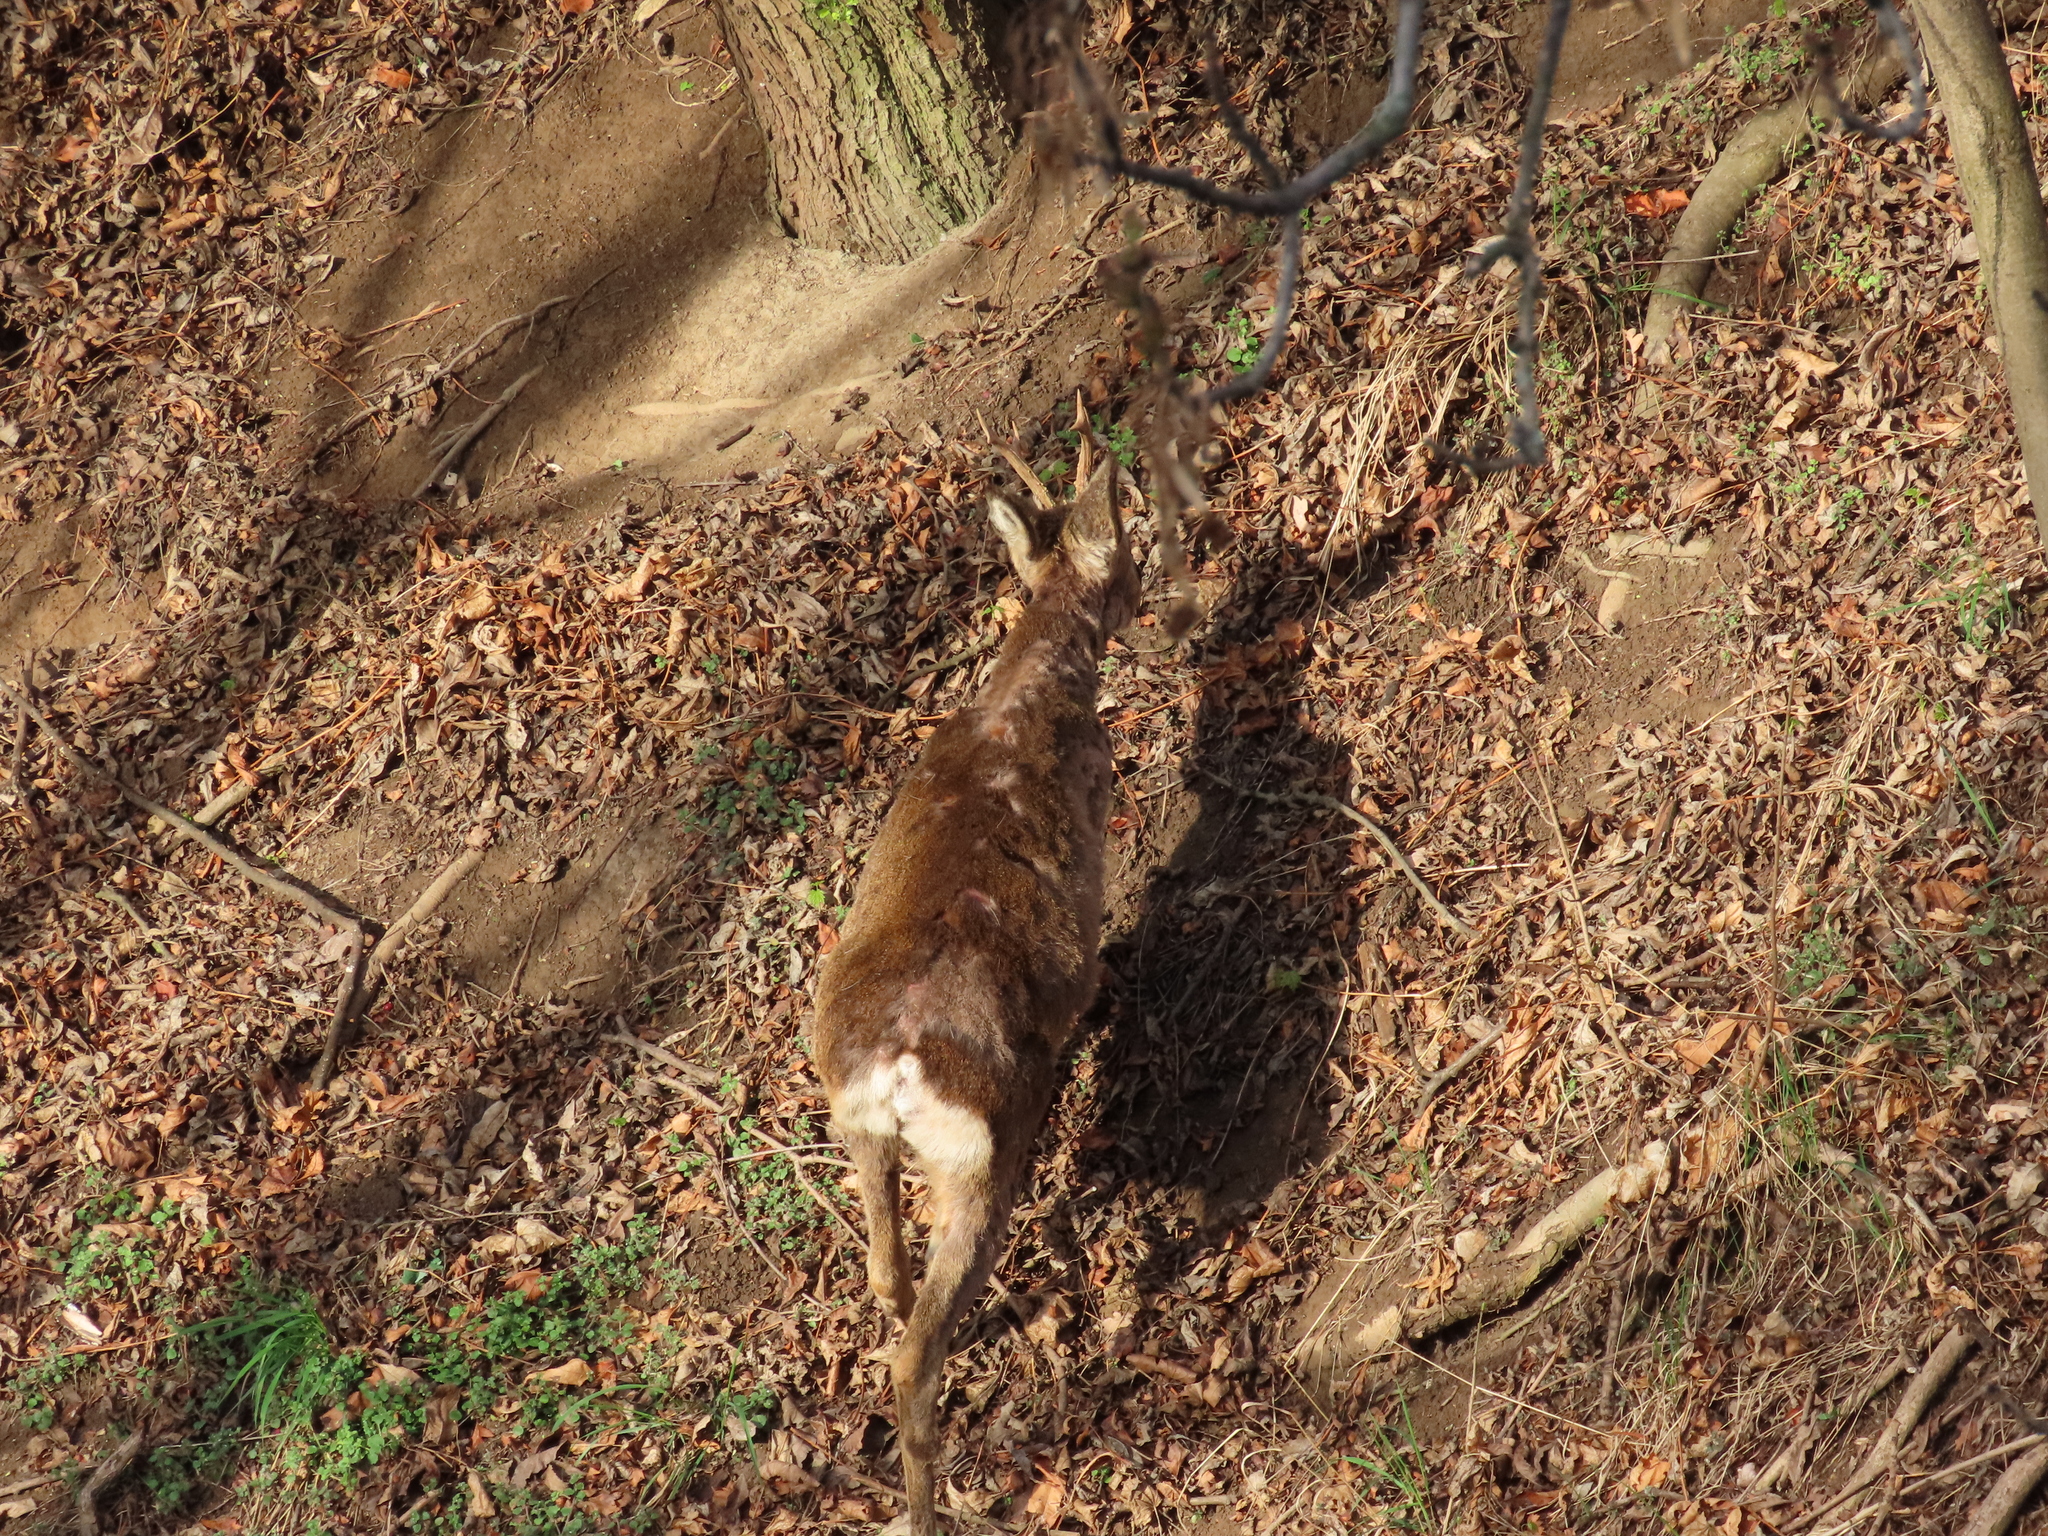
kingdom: Animalia
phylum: Chordata
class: Mammalia
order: Artiodactyla
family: Cervidae
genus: Capreolus
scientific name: Capreolus capreolus
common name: Western roe deer
